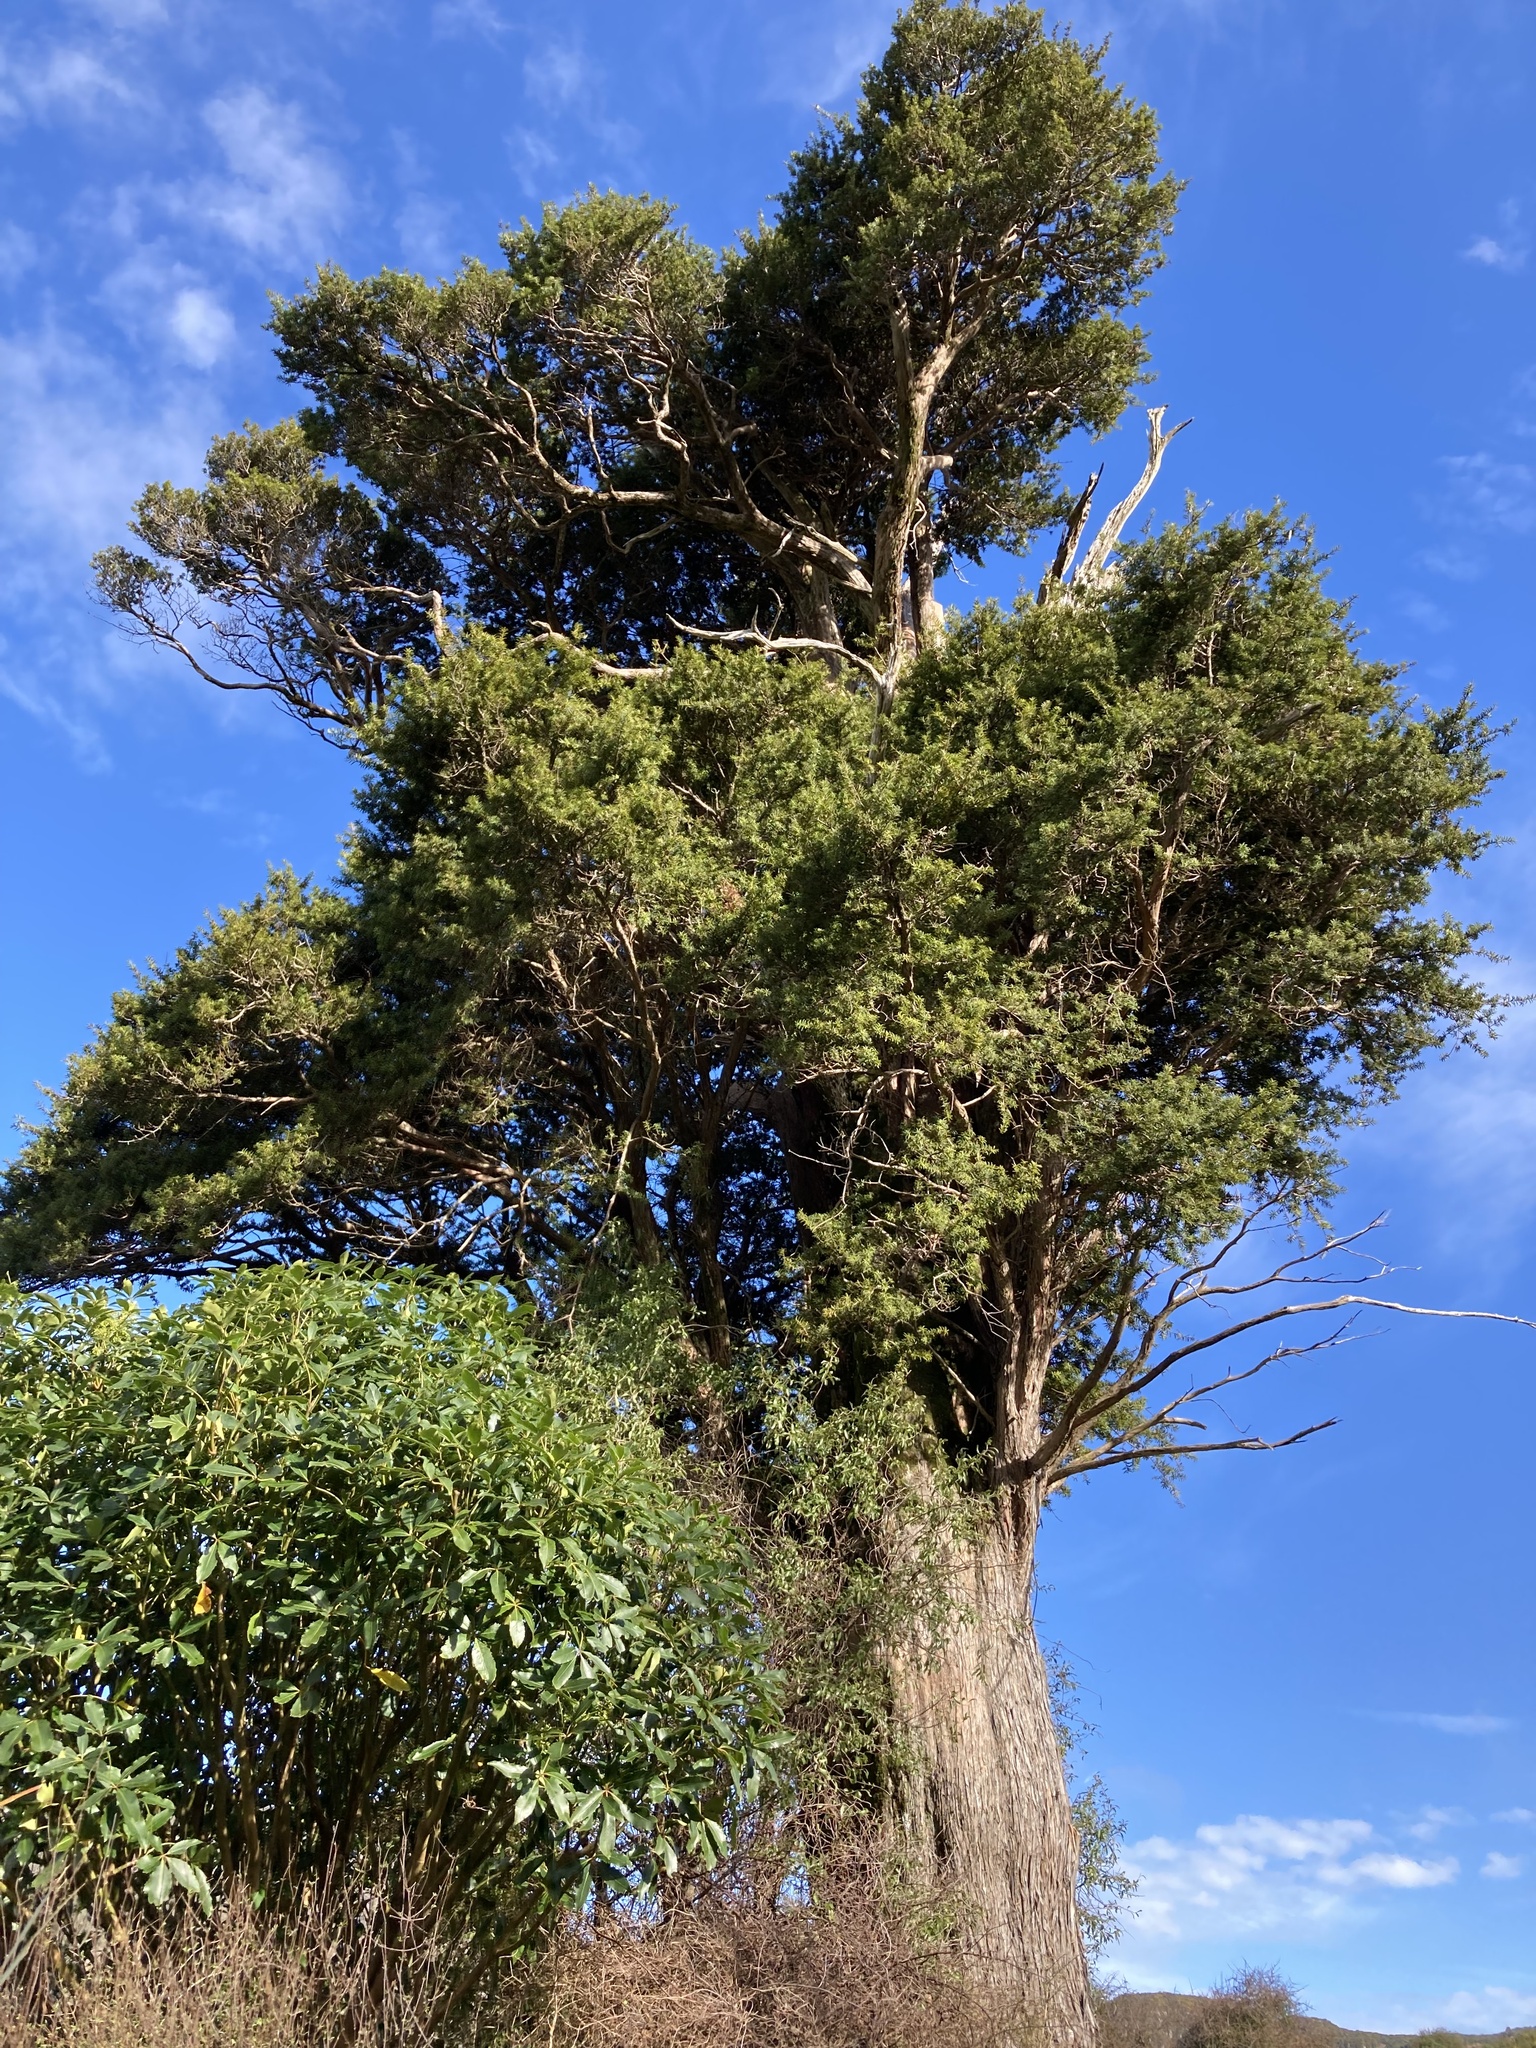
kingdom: Plantae
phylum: Tracheophyta
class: Pinopsida
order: Pinales
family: Podocarpaceae
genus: Podocarpus
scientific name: Podocarpus totara
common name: Totara
